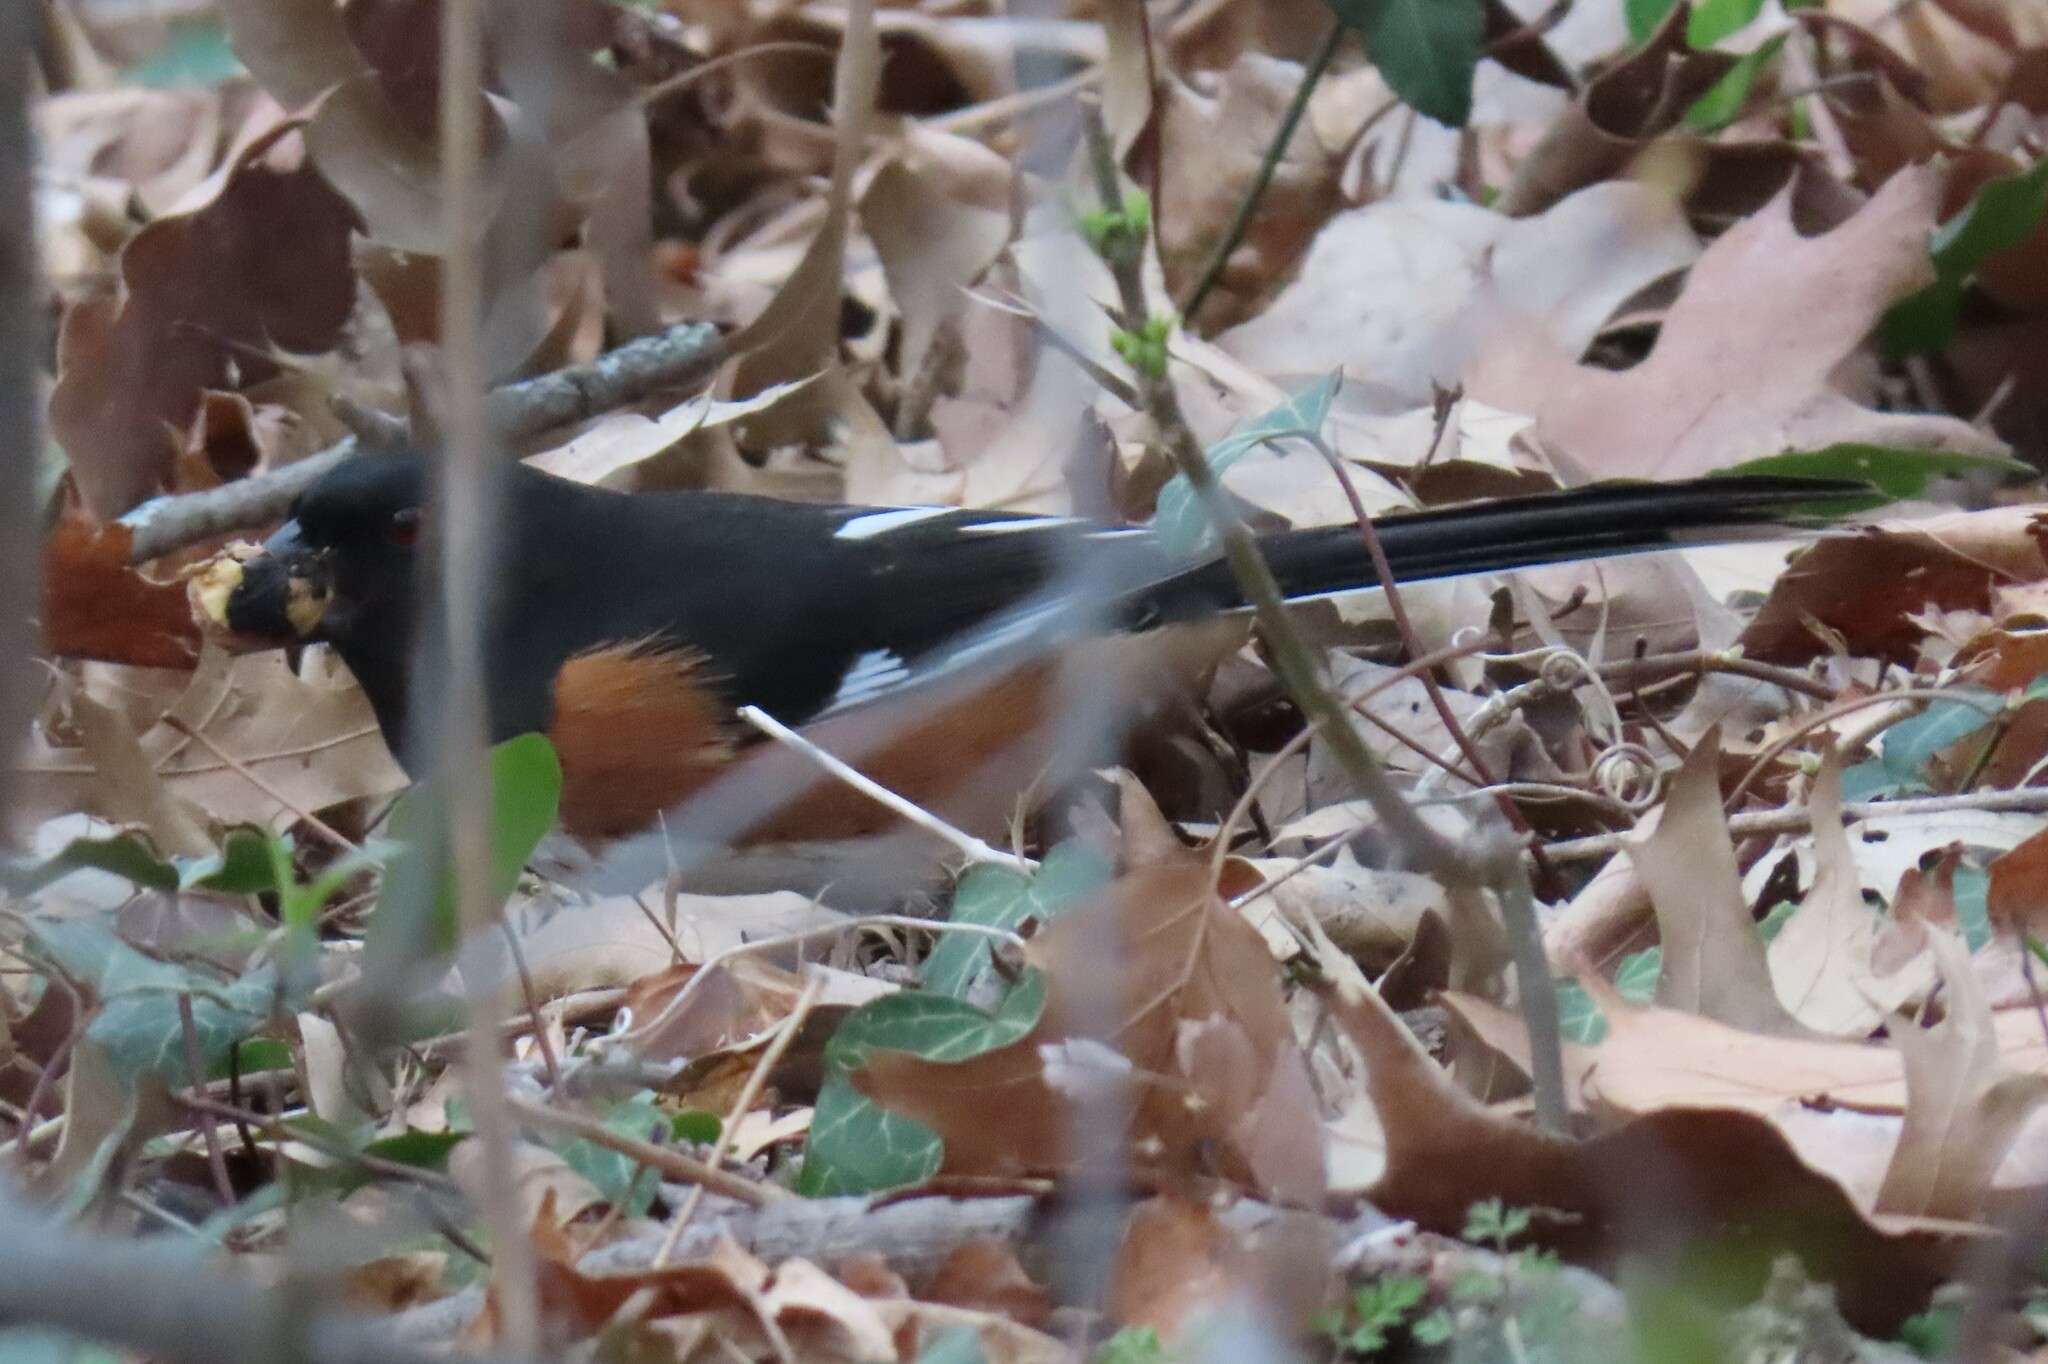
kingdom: Animalia
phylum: Chordata
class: Aves
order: Passeriformes
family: Passerellidae
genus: Pipilo
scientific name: Pipilo erythrophthalmus
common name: Eastern towhee
